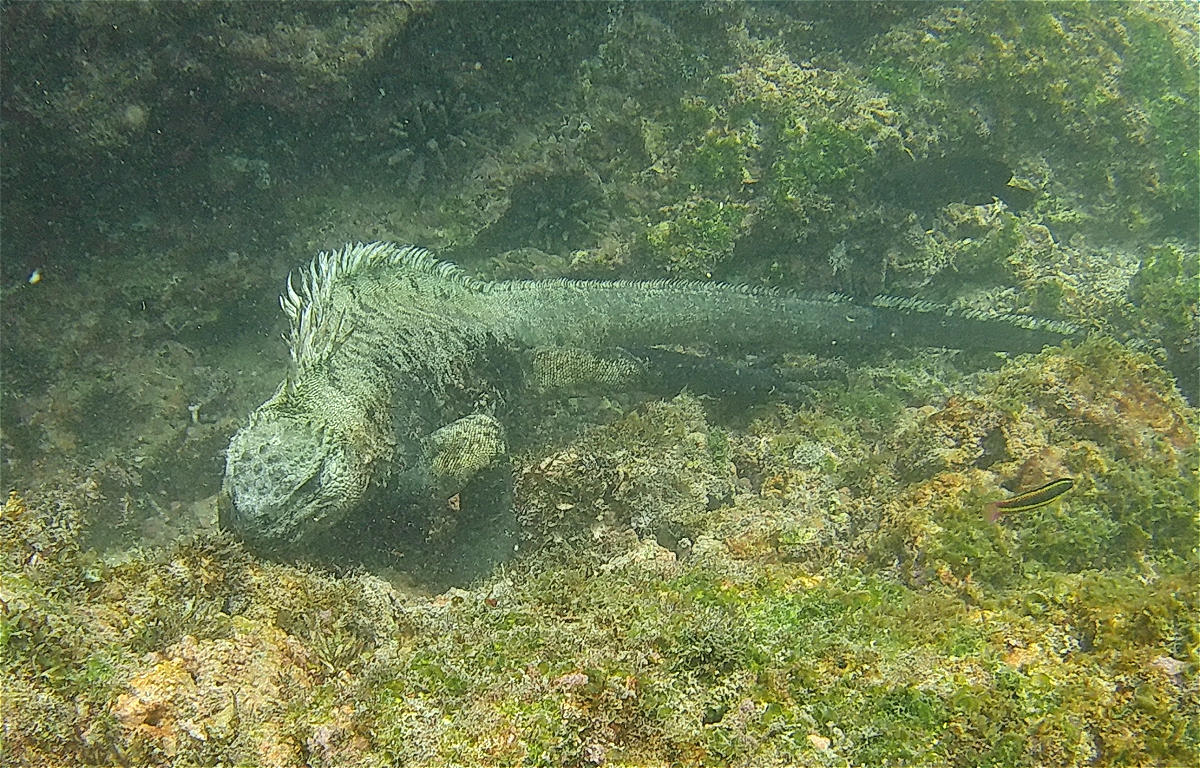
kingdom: Animalia
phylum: Chordata
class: Squamata
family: Iguanidae
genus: Amblyrhynchus
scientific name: Amblyrhynchus cristatus
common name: Marine iguana
